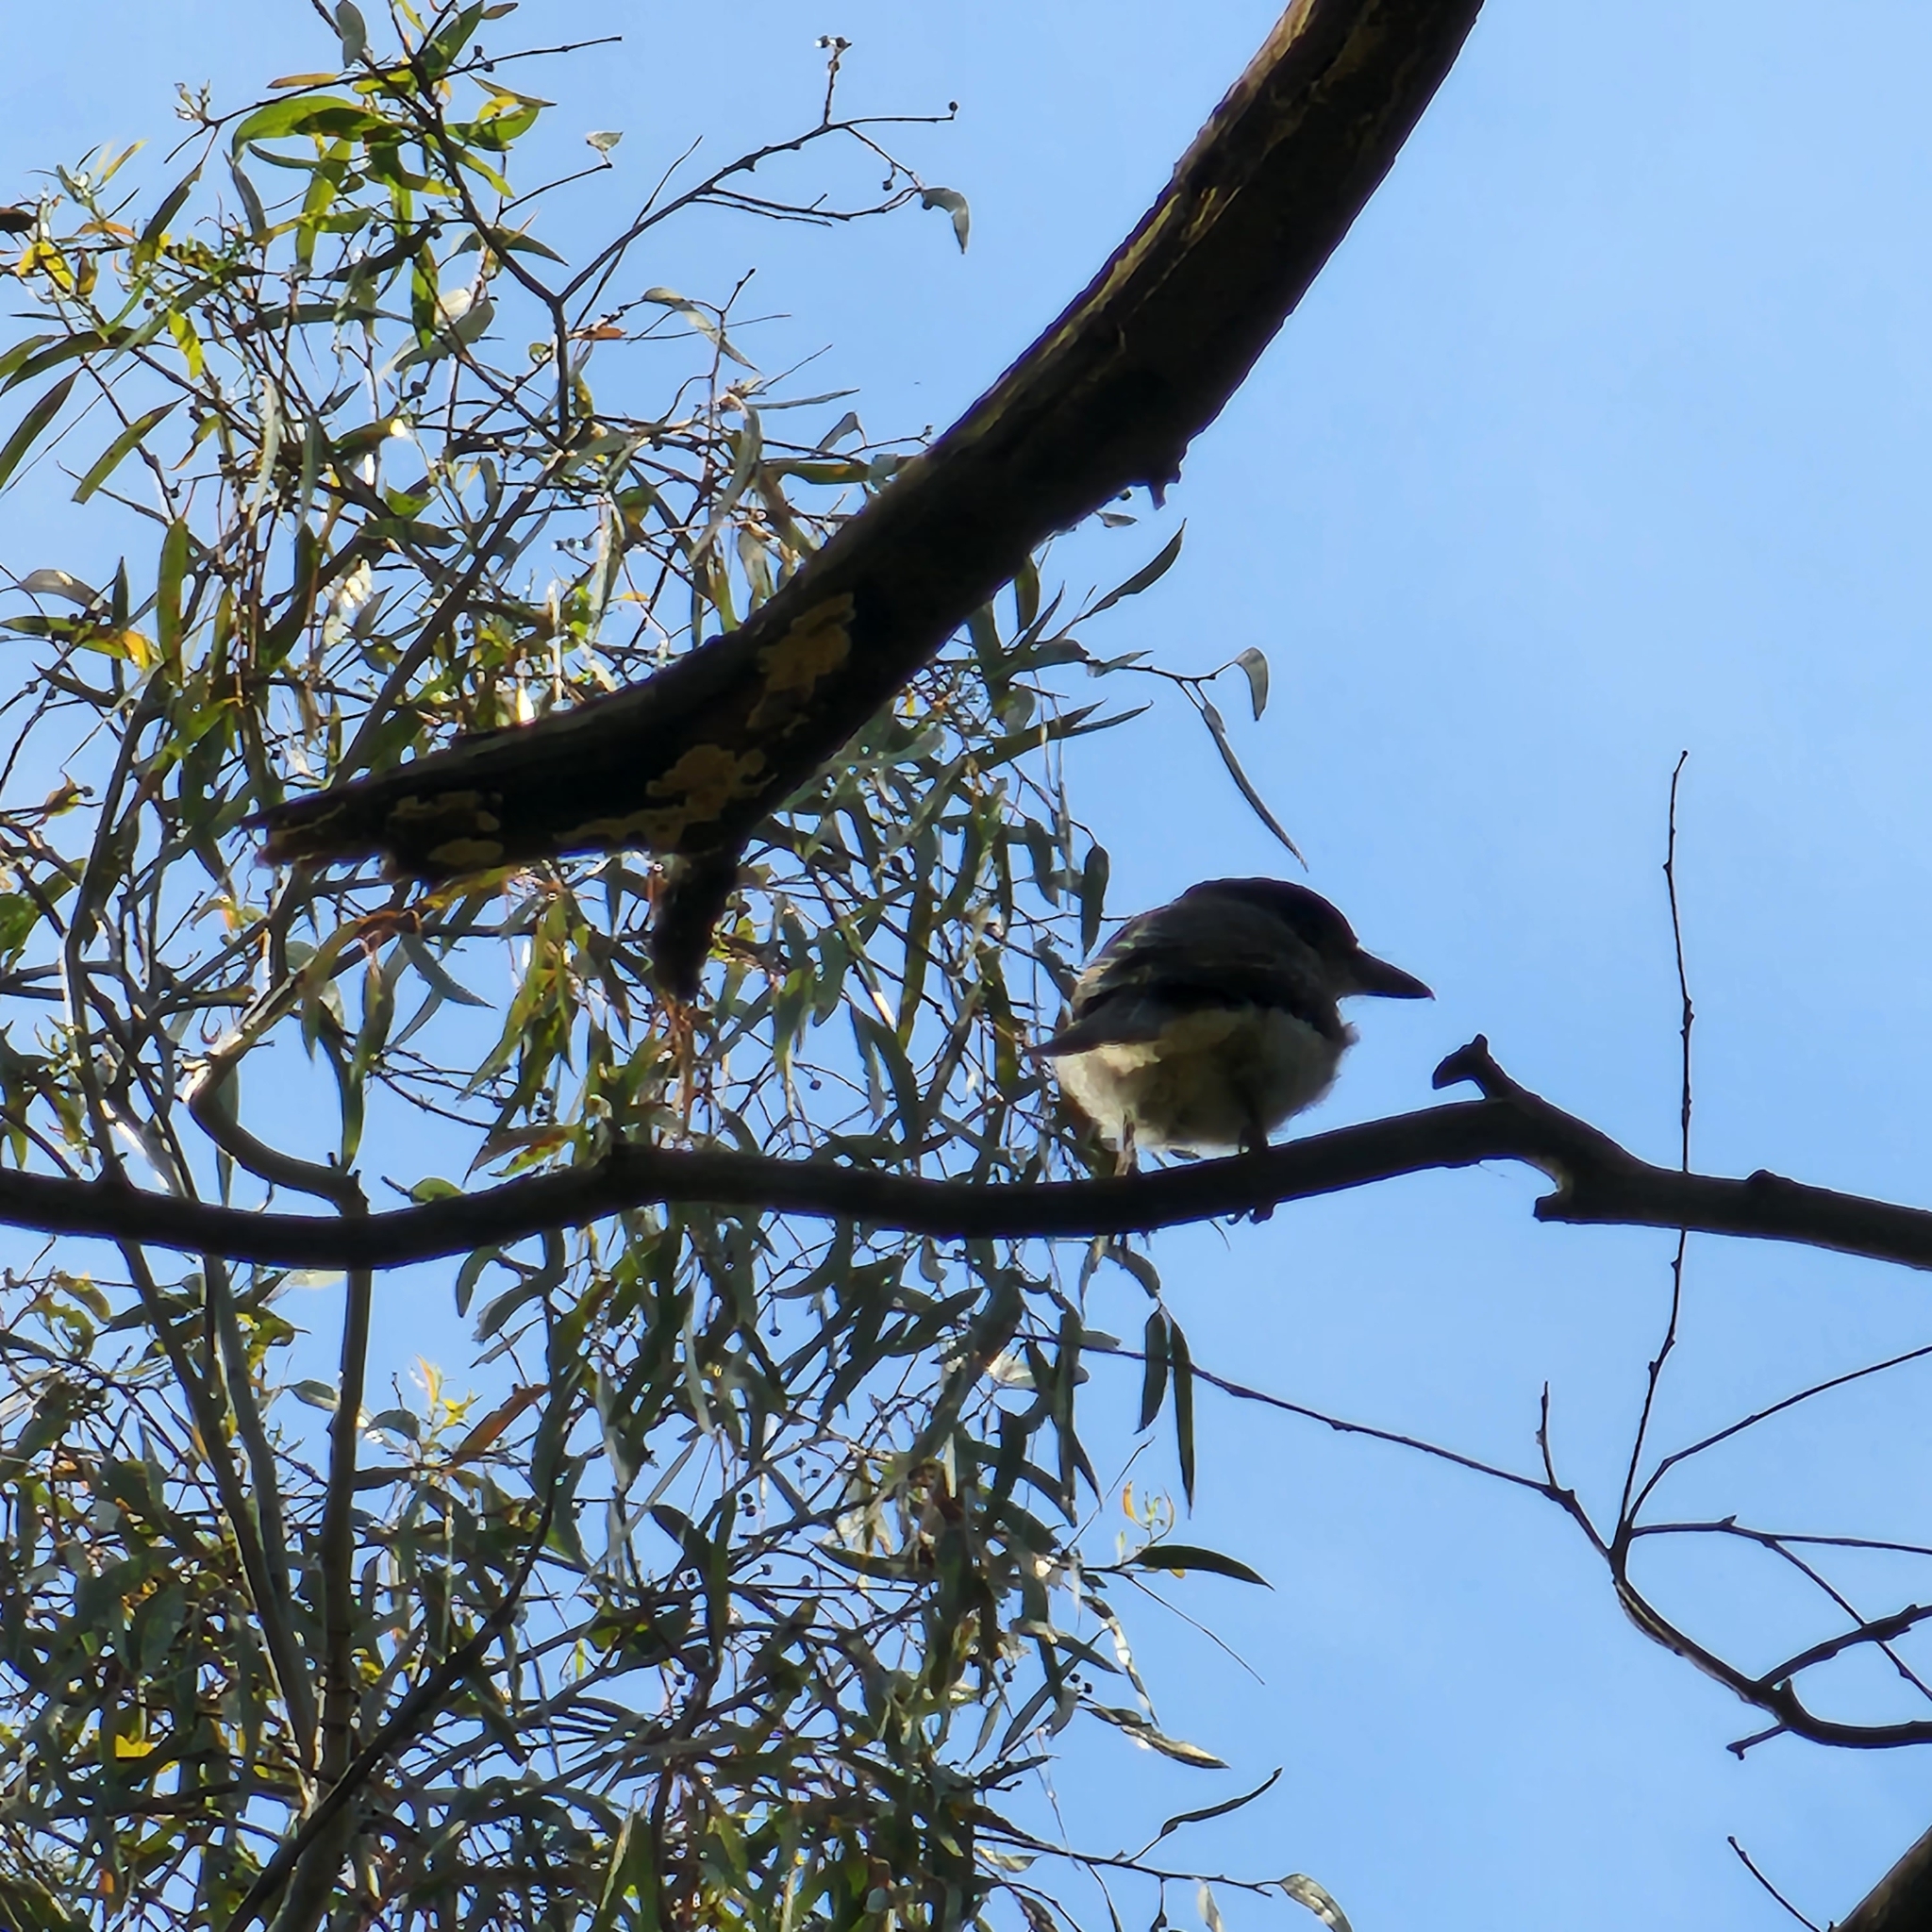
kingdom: Animalia
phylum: Chordata
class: Aves
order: Passeriformes
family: Cracticidae
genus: Cracticus
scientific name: Cracticus torquatus
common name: Grey butcherbird
